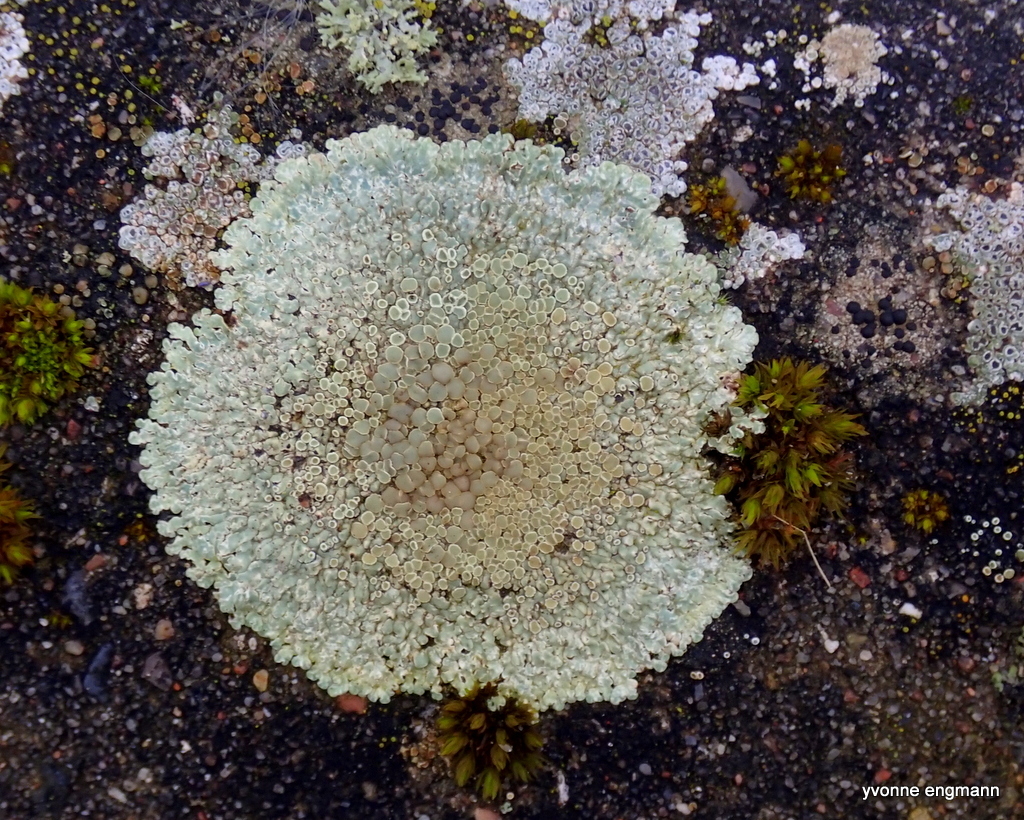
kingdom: Fungi
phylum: Ascomycota
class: Lecanoromycetes
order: Lecanorales
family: Lecanoraceae
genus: Protoparmeliopsis
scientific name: Protoparmeliopsis muralis
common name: Stonewall rim lichen
